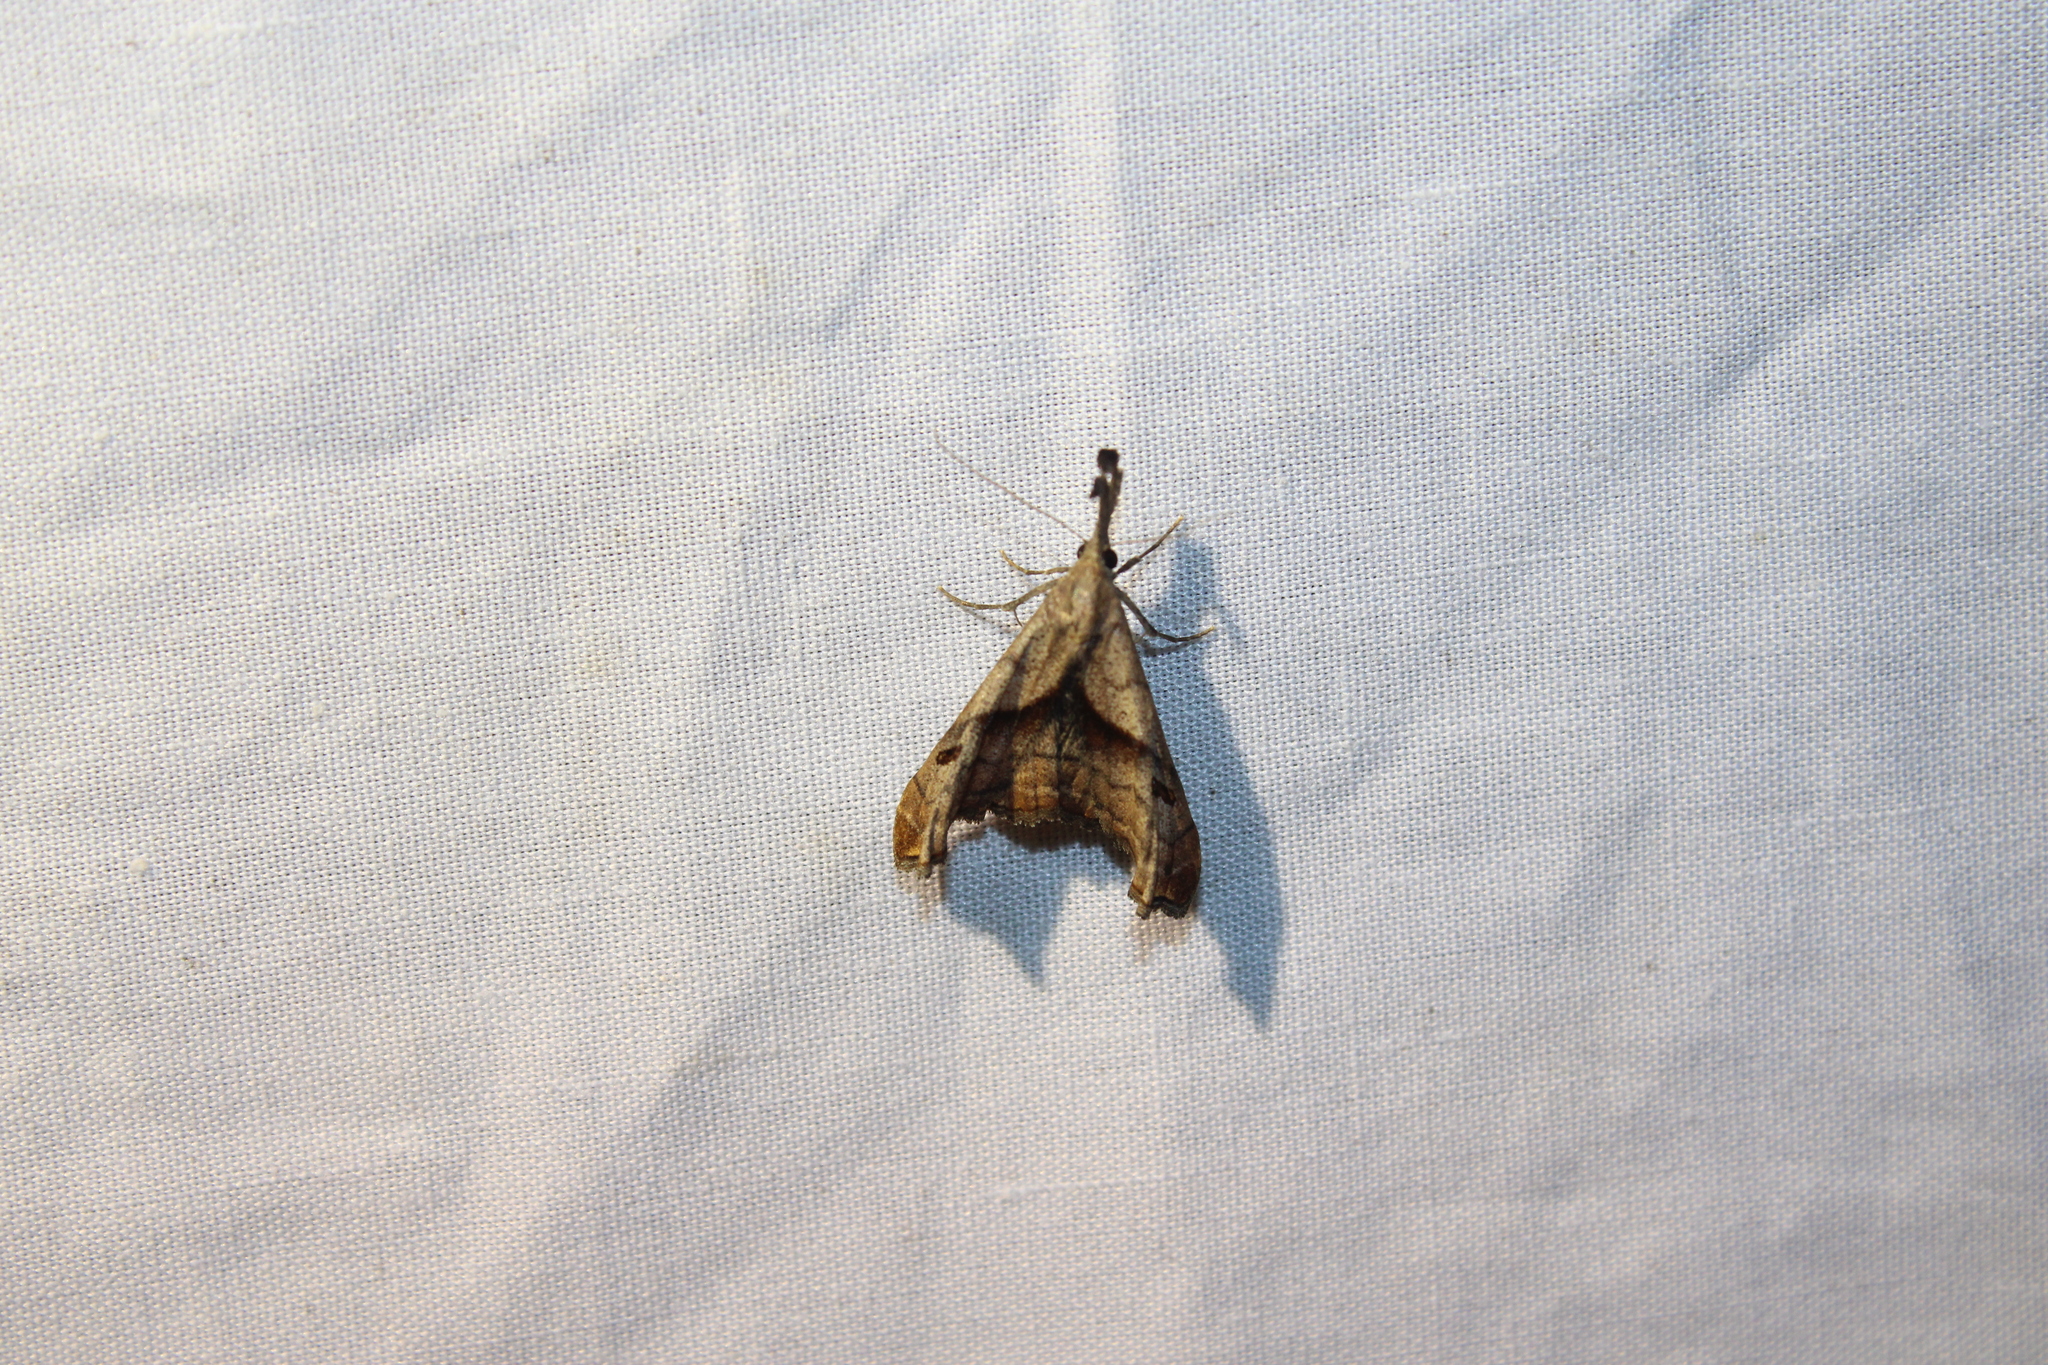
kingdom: Animalia
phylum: Arthropoda
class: Insecta
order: Lepidoptera
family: Erebidae
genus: Palthis
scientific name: Palthis angulalis
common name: Dark-spotted palthis moth
